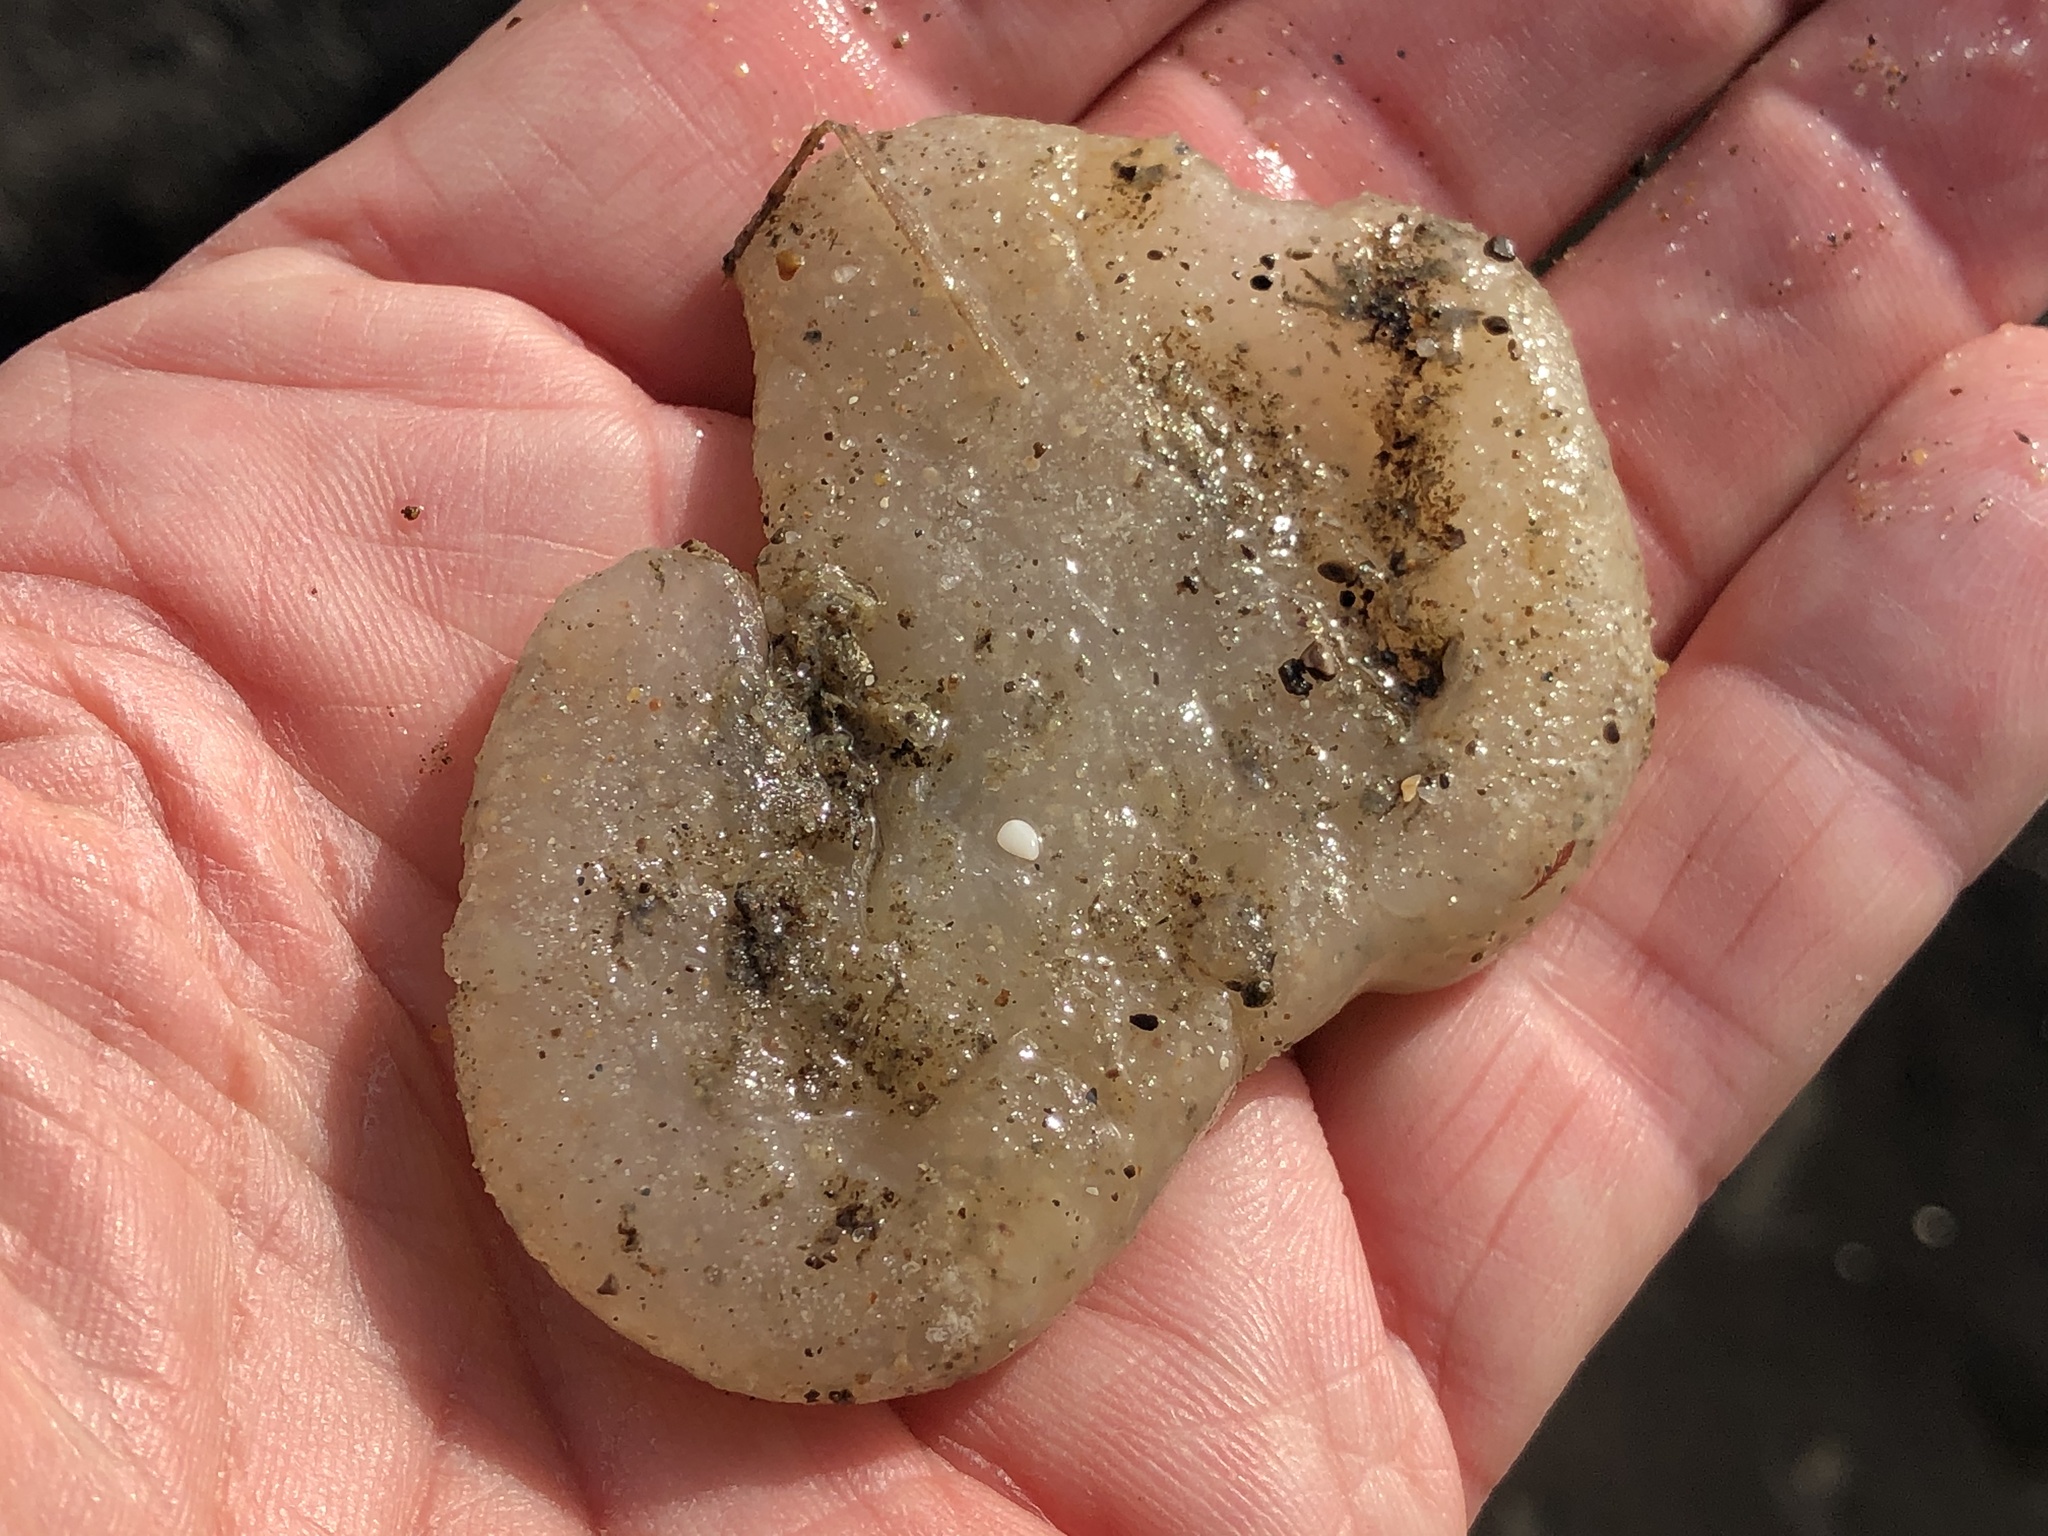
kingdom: Animalia
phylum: Chordata
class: Ascidiacea
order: Aplousobranchia
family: Polyclinidae
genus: Aplidium
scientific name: Aplidium californicum
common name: Sea pork
